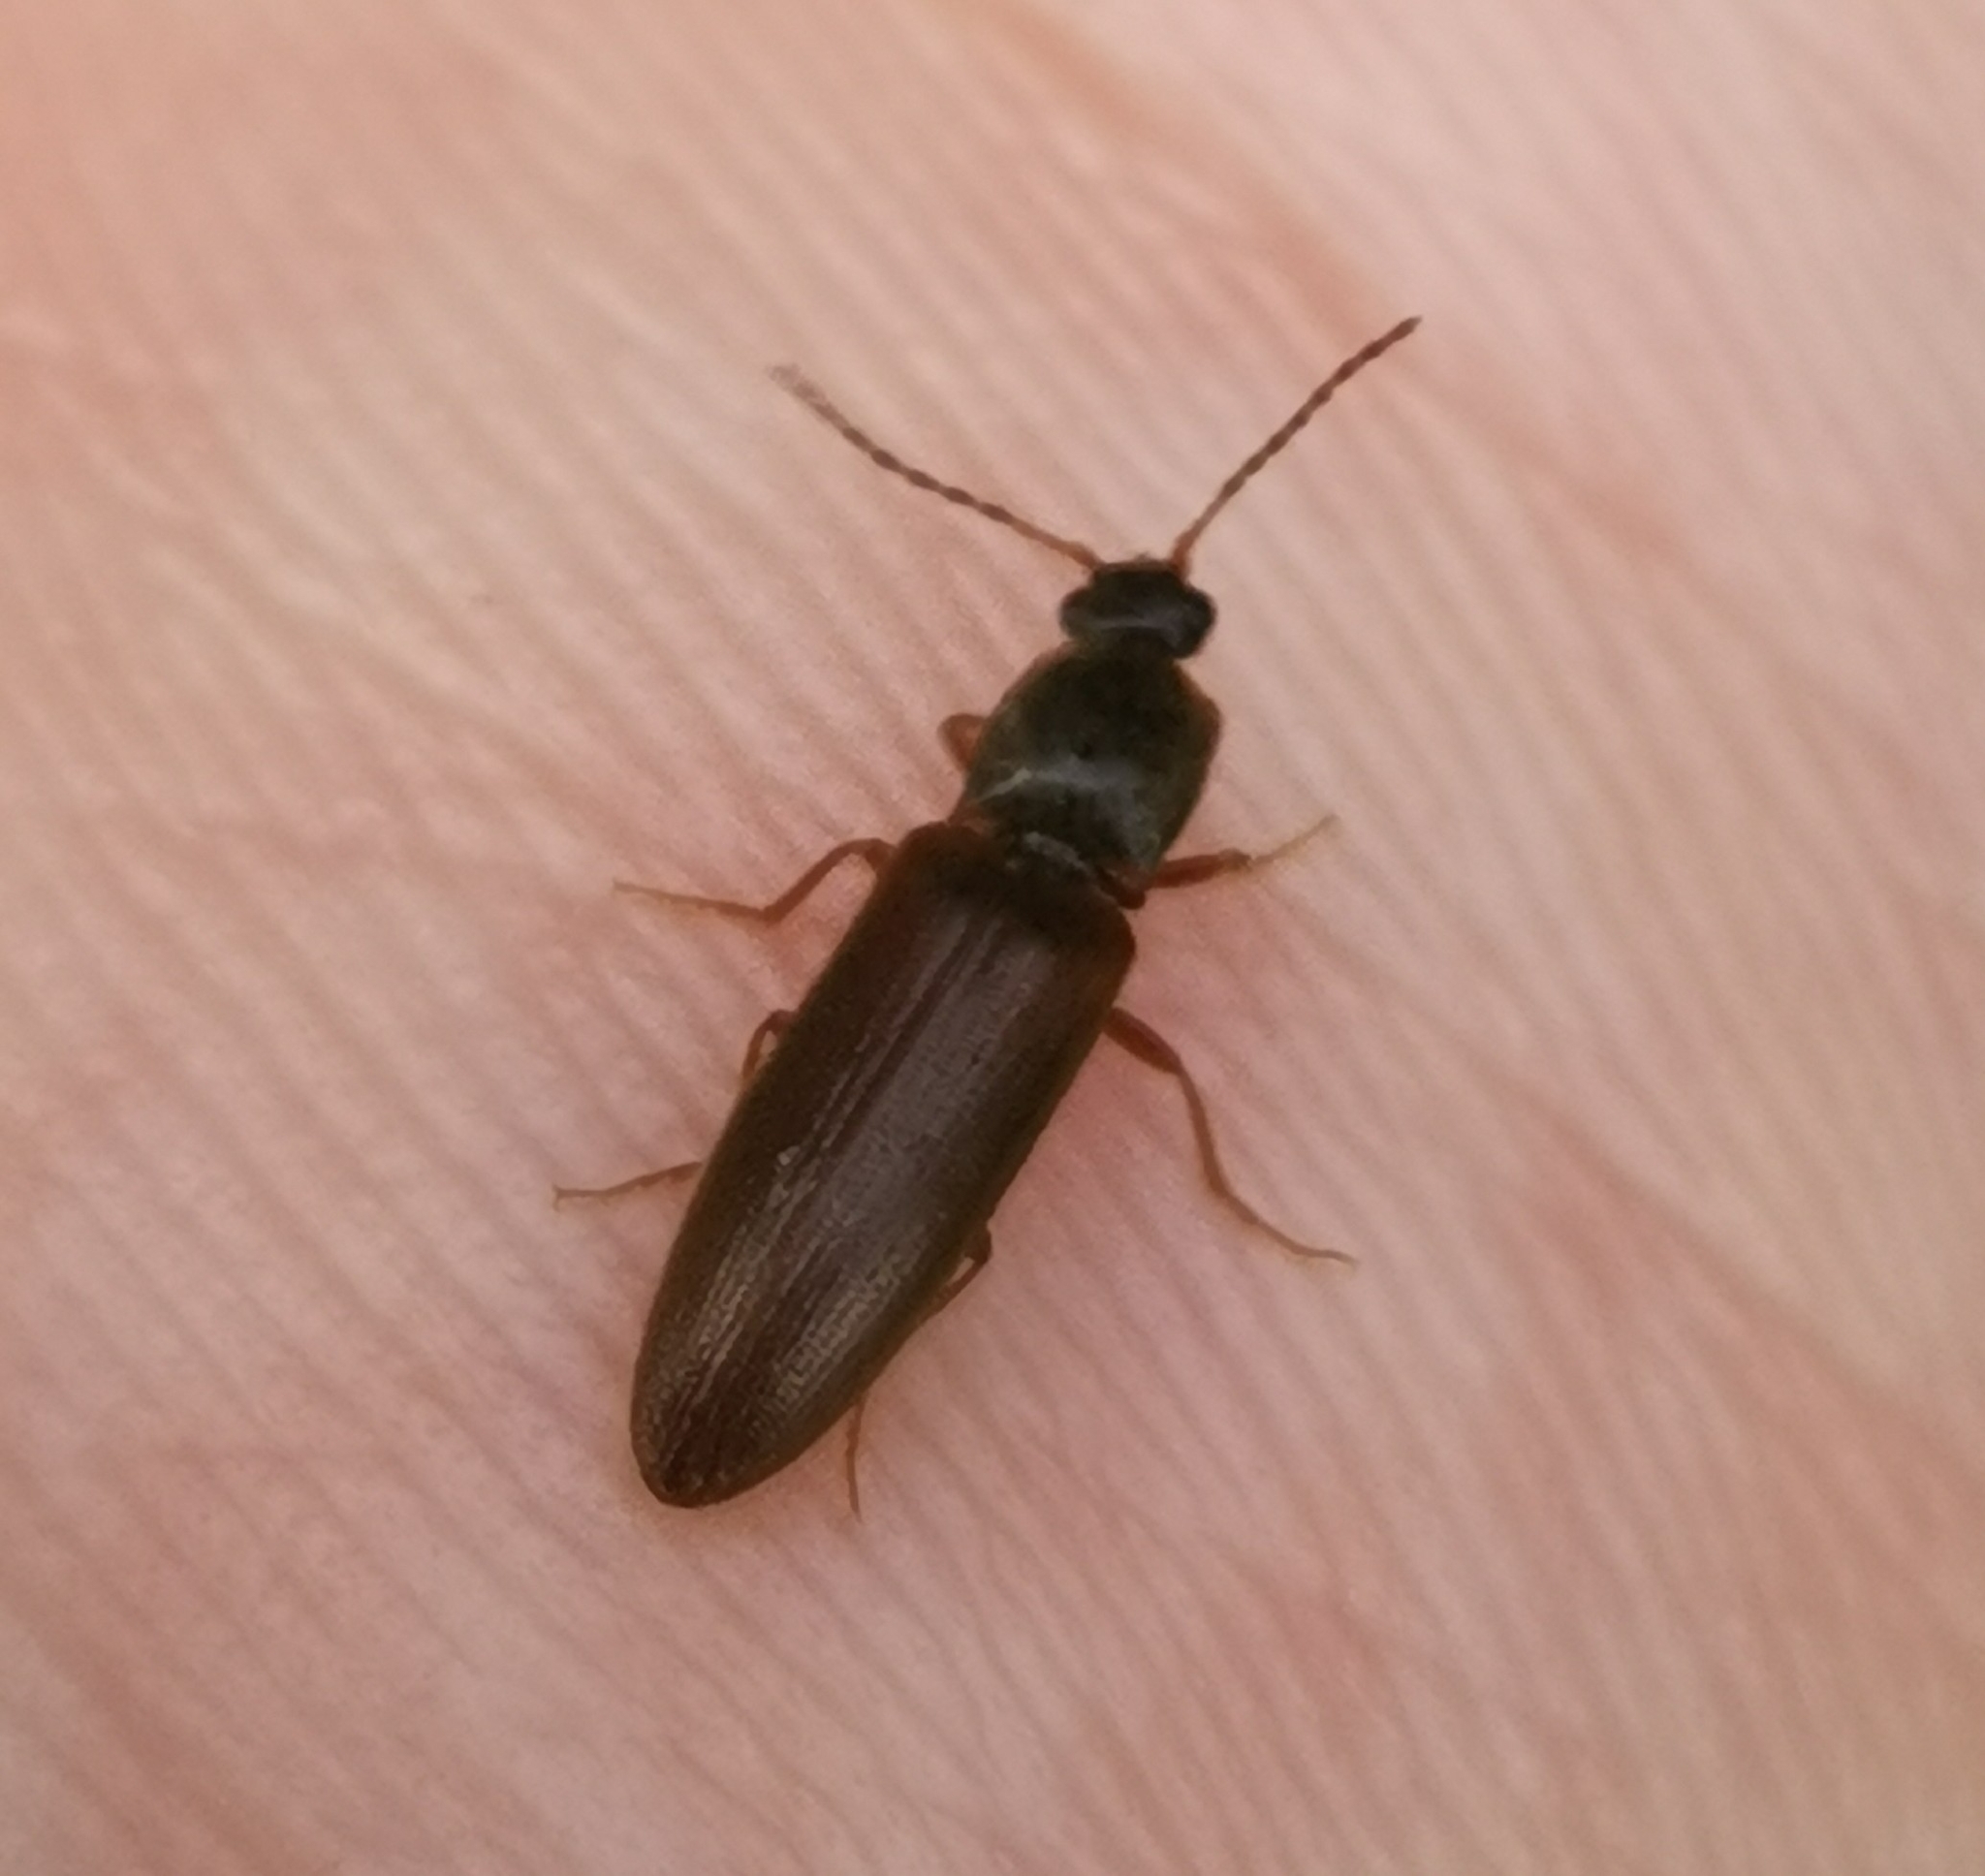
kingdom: Animalia
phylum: Arthropoda
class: Insecta
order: Coleoptera
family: Elateridae
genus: Athous
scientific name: Athous subfuscus
